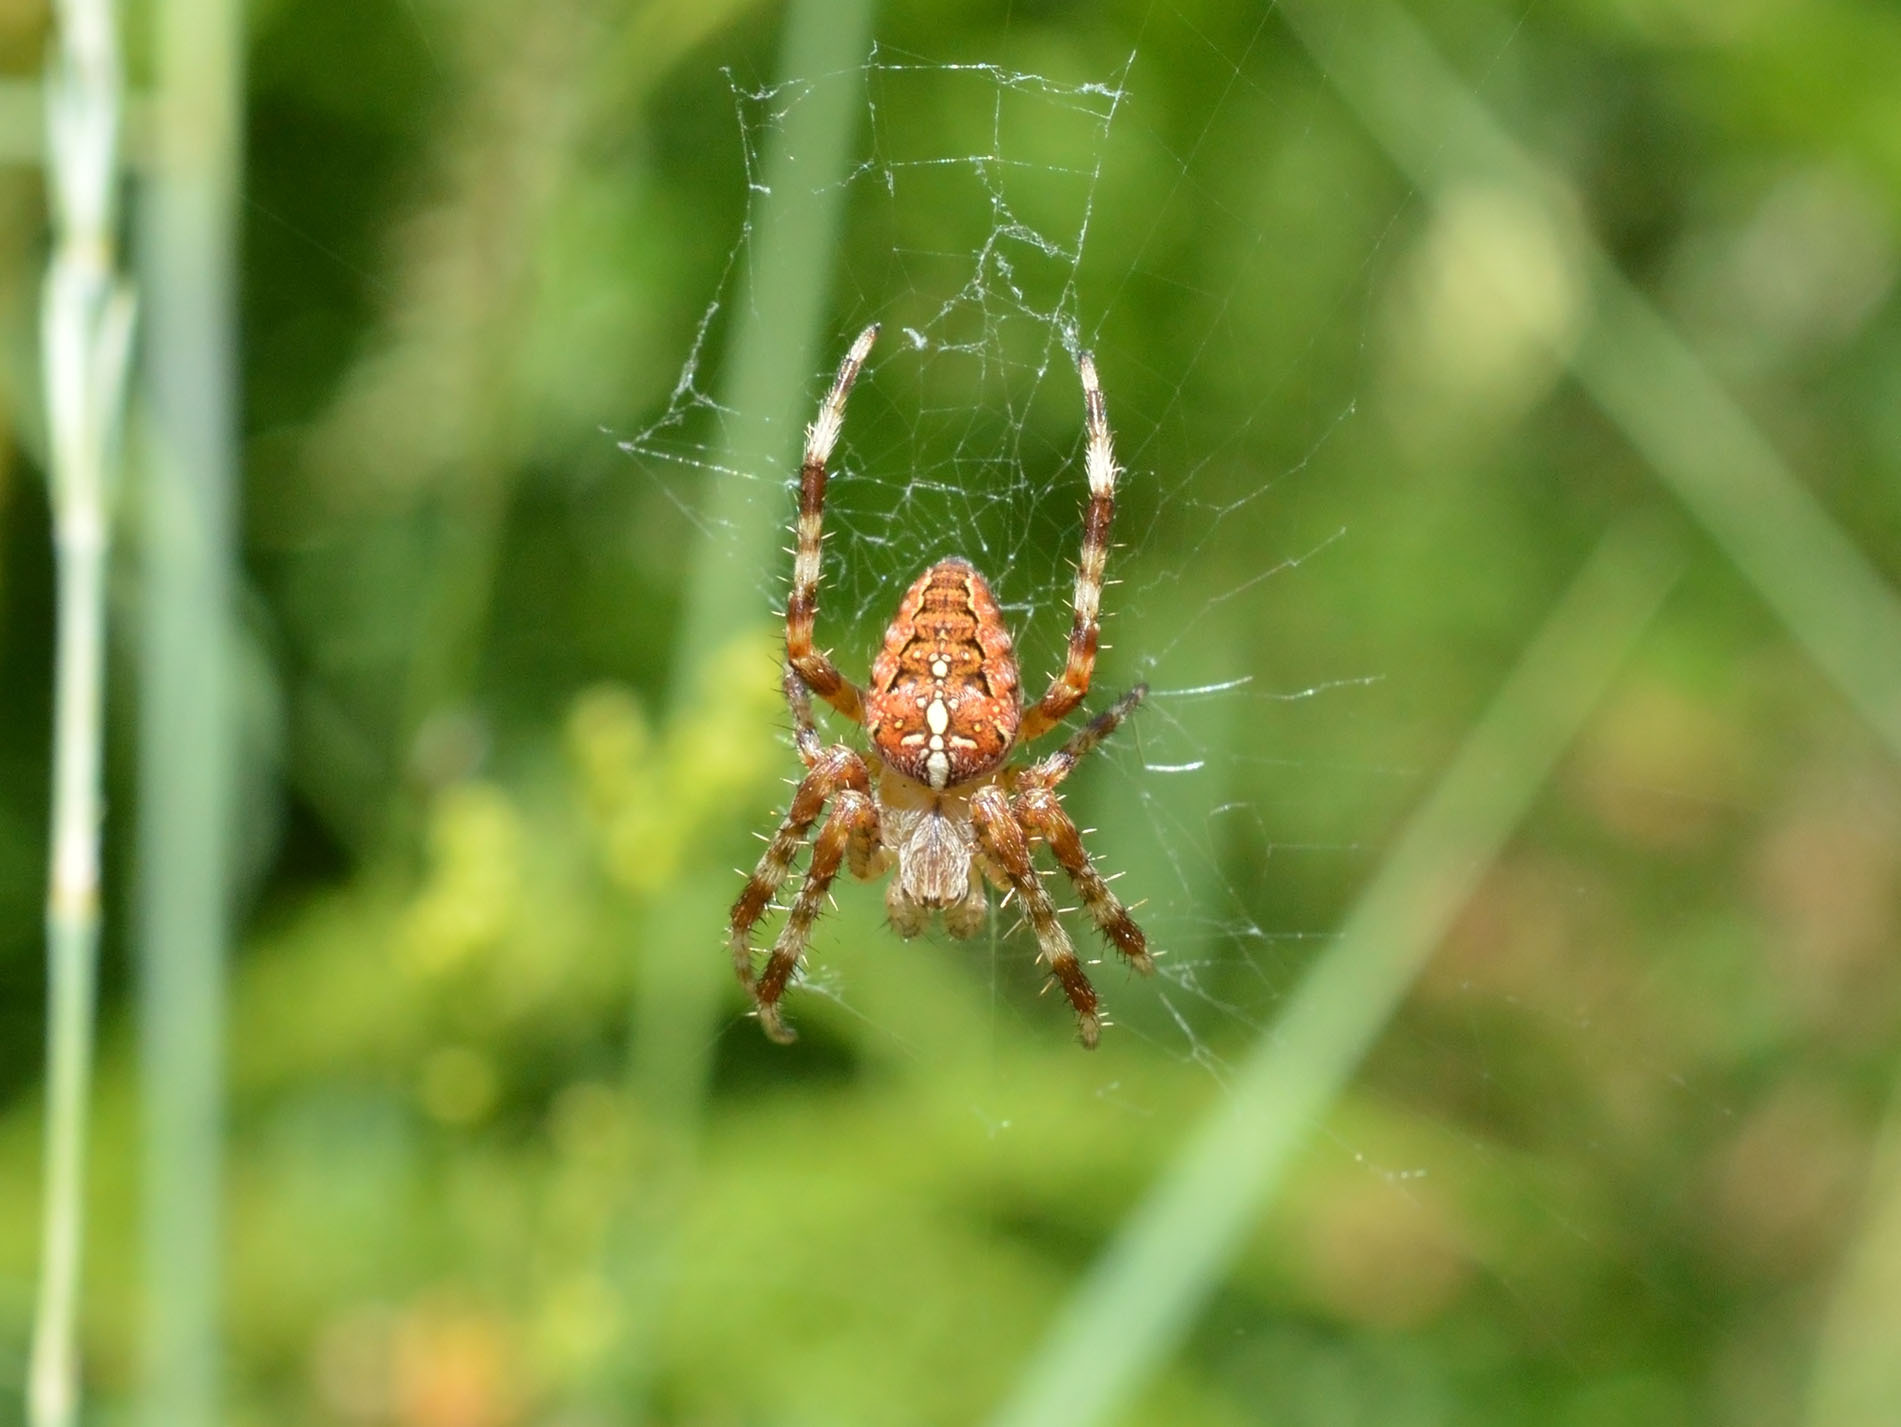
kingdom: Animalia
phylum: Arthropoda
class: Arachnida
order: Araneae
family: Araneidae
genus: Araneus
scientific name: Araneus diadematus
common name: Cross orbweaver
